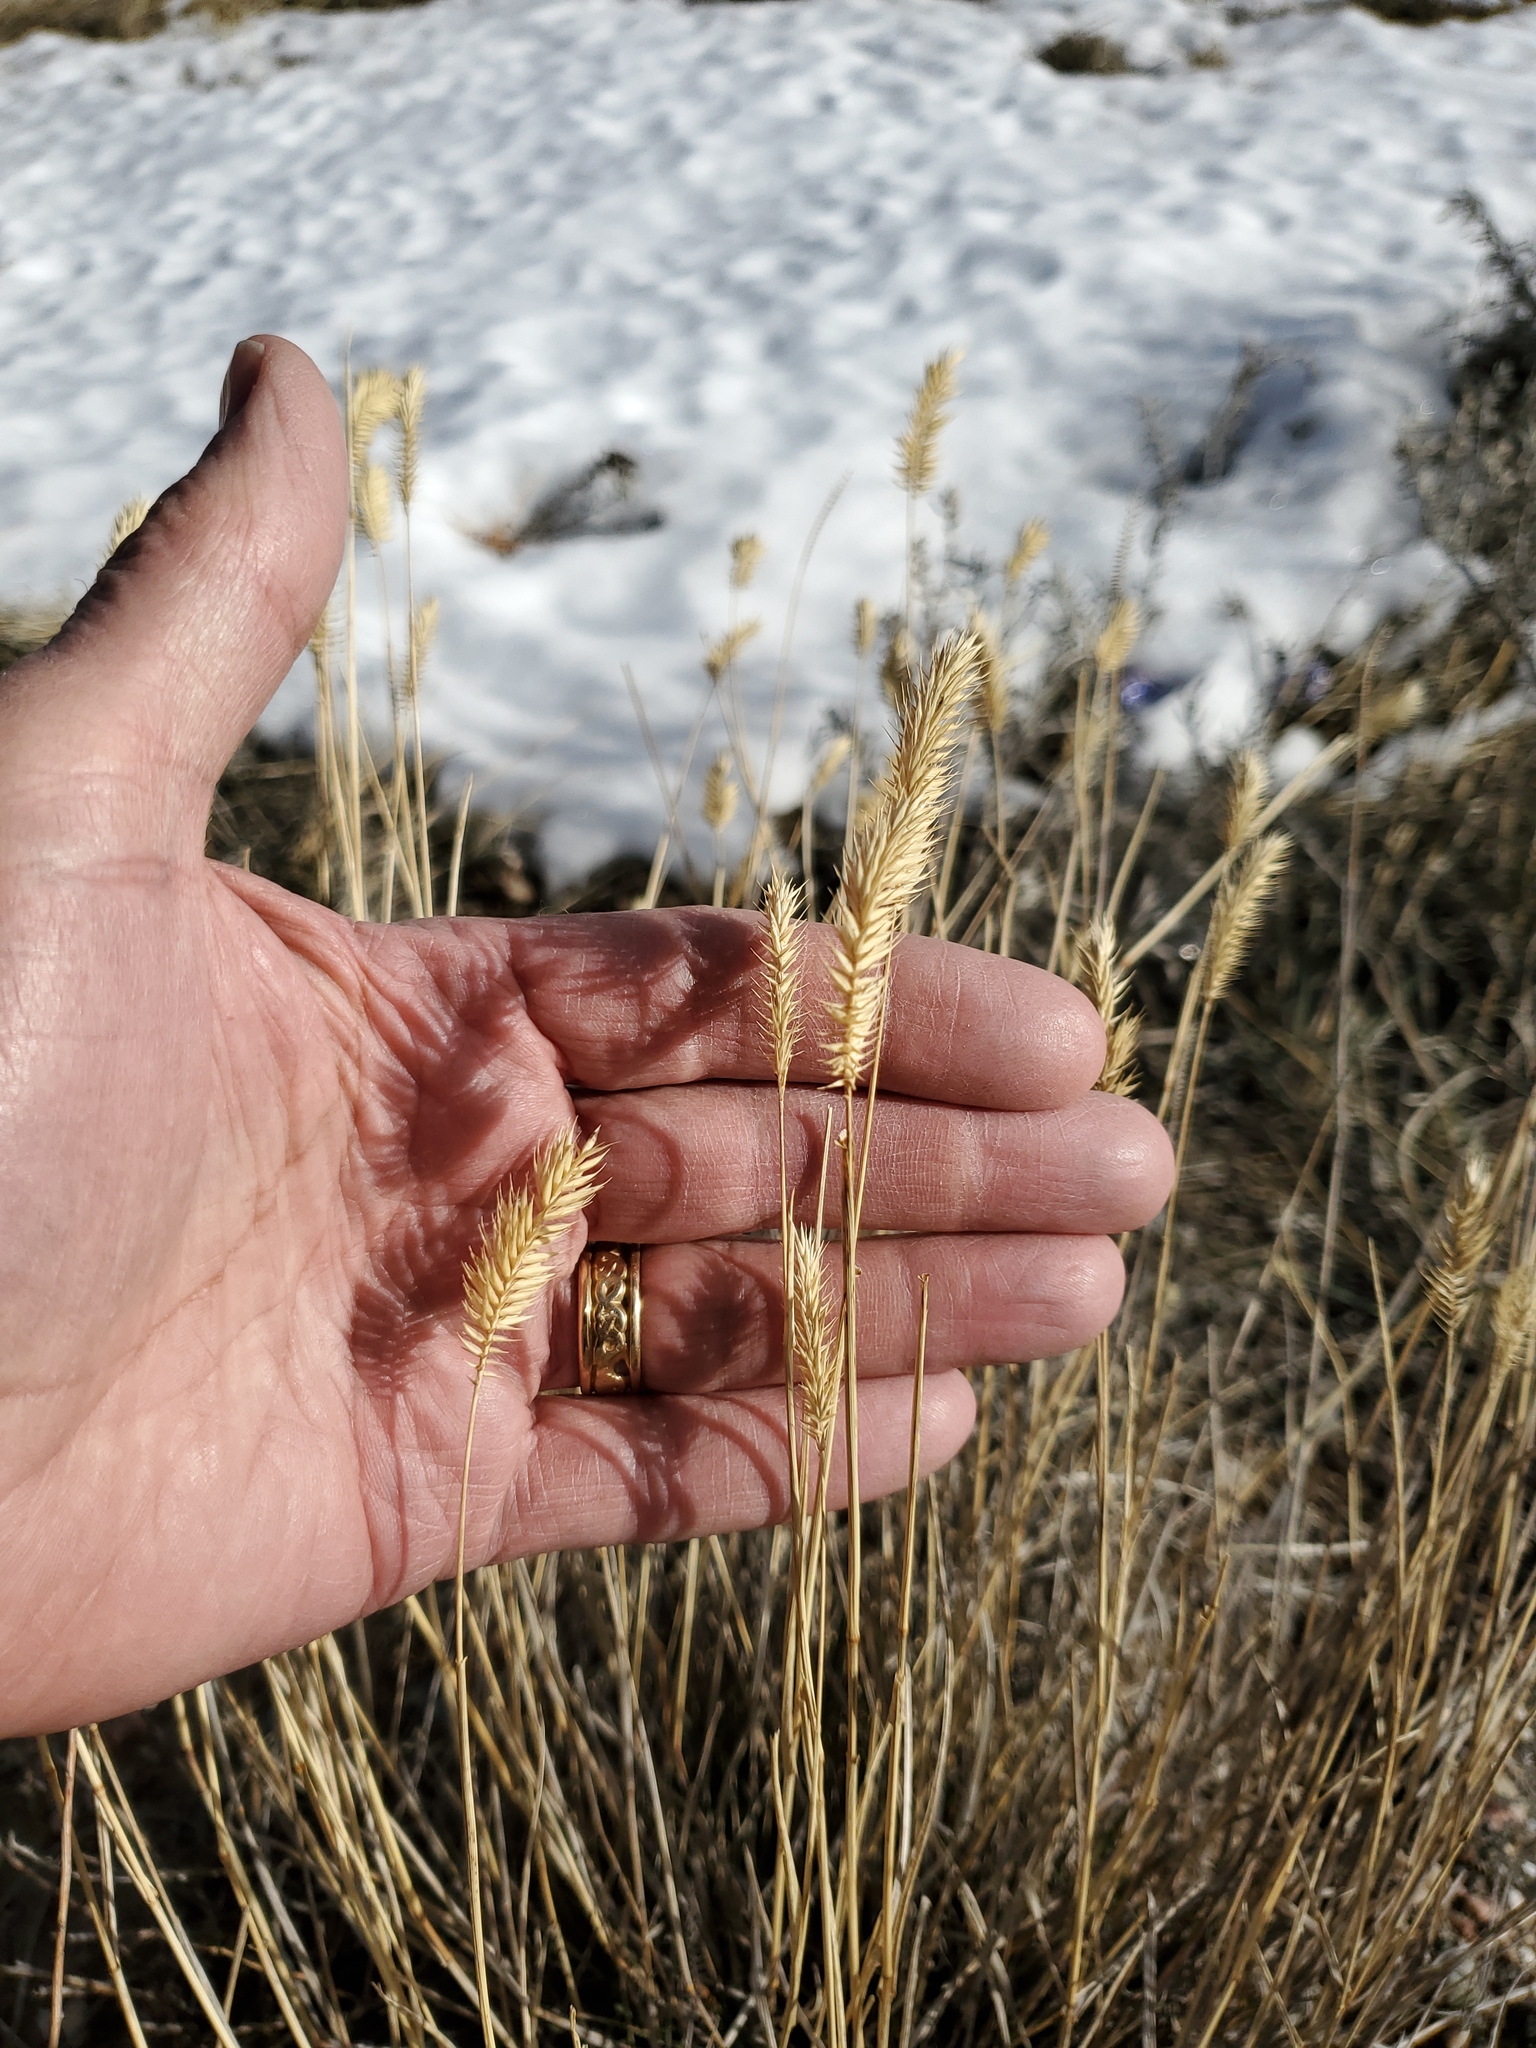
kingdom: Plantae
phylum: Tracheophyta
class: Liliopsida
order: Poales
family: Poaceae
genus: Agropyron
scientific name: Agropyron cristatum
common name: Crested wheatgrass
